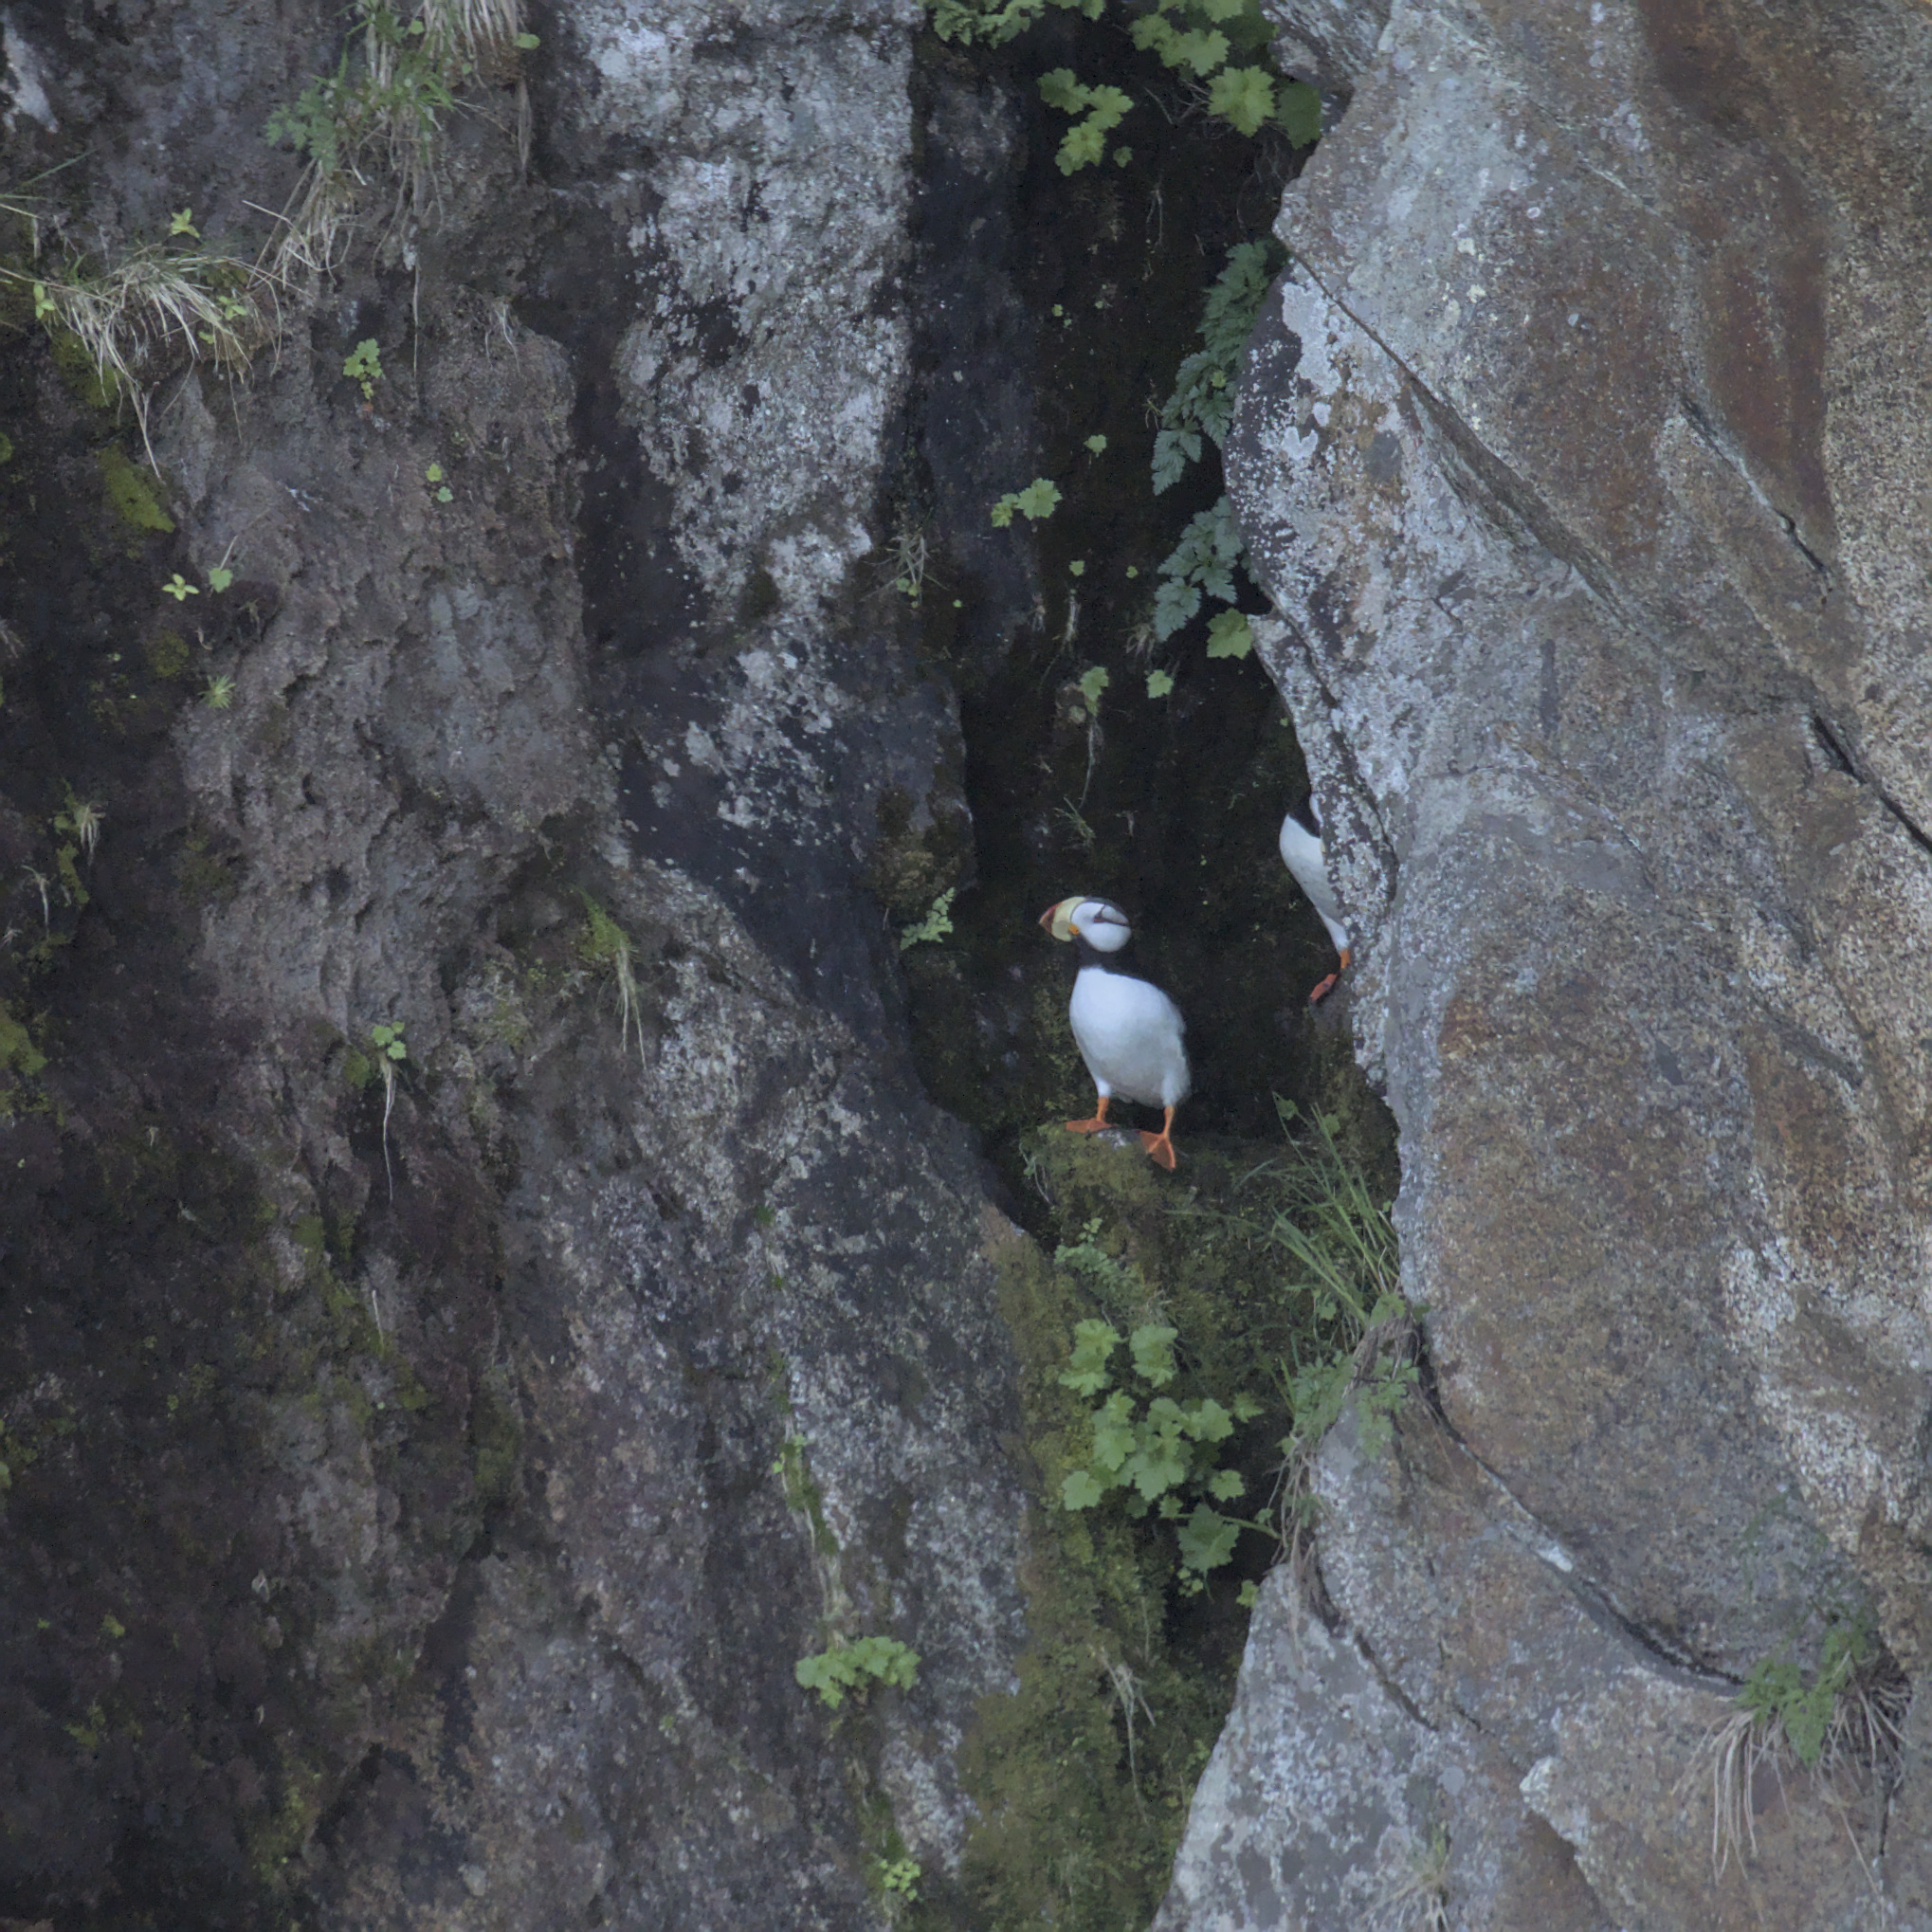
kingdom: Animalia
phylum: Chordata
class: Aves
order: Charadriiformes
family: Alcidae
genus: Fratercula
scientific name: Fratercula corniculata
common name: Horned puffin
